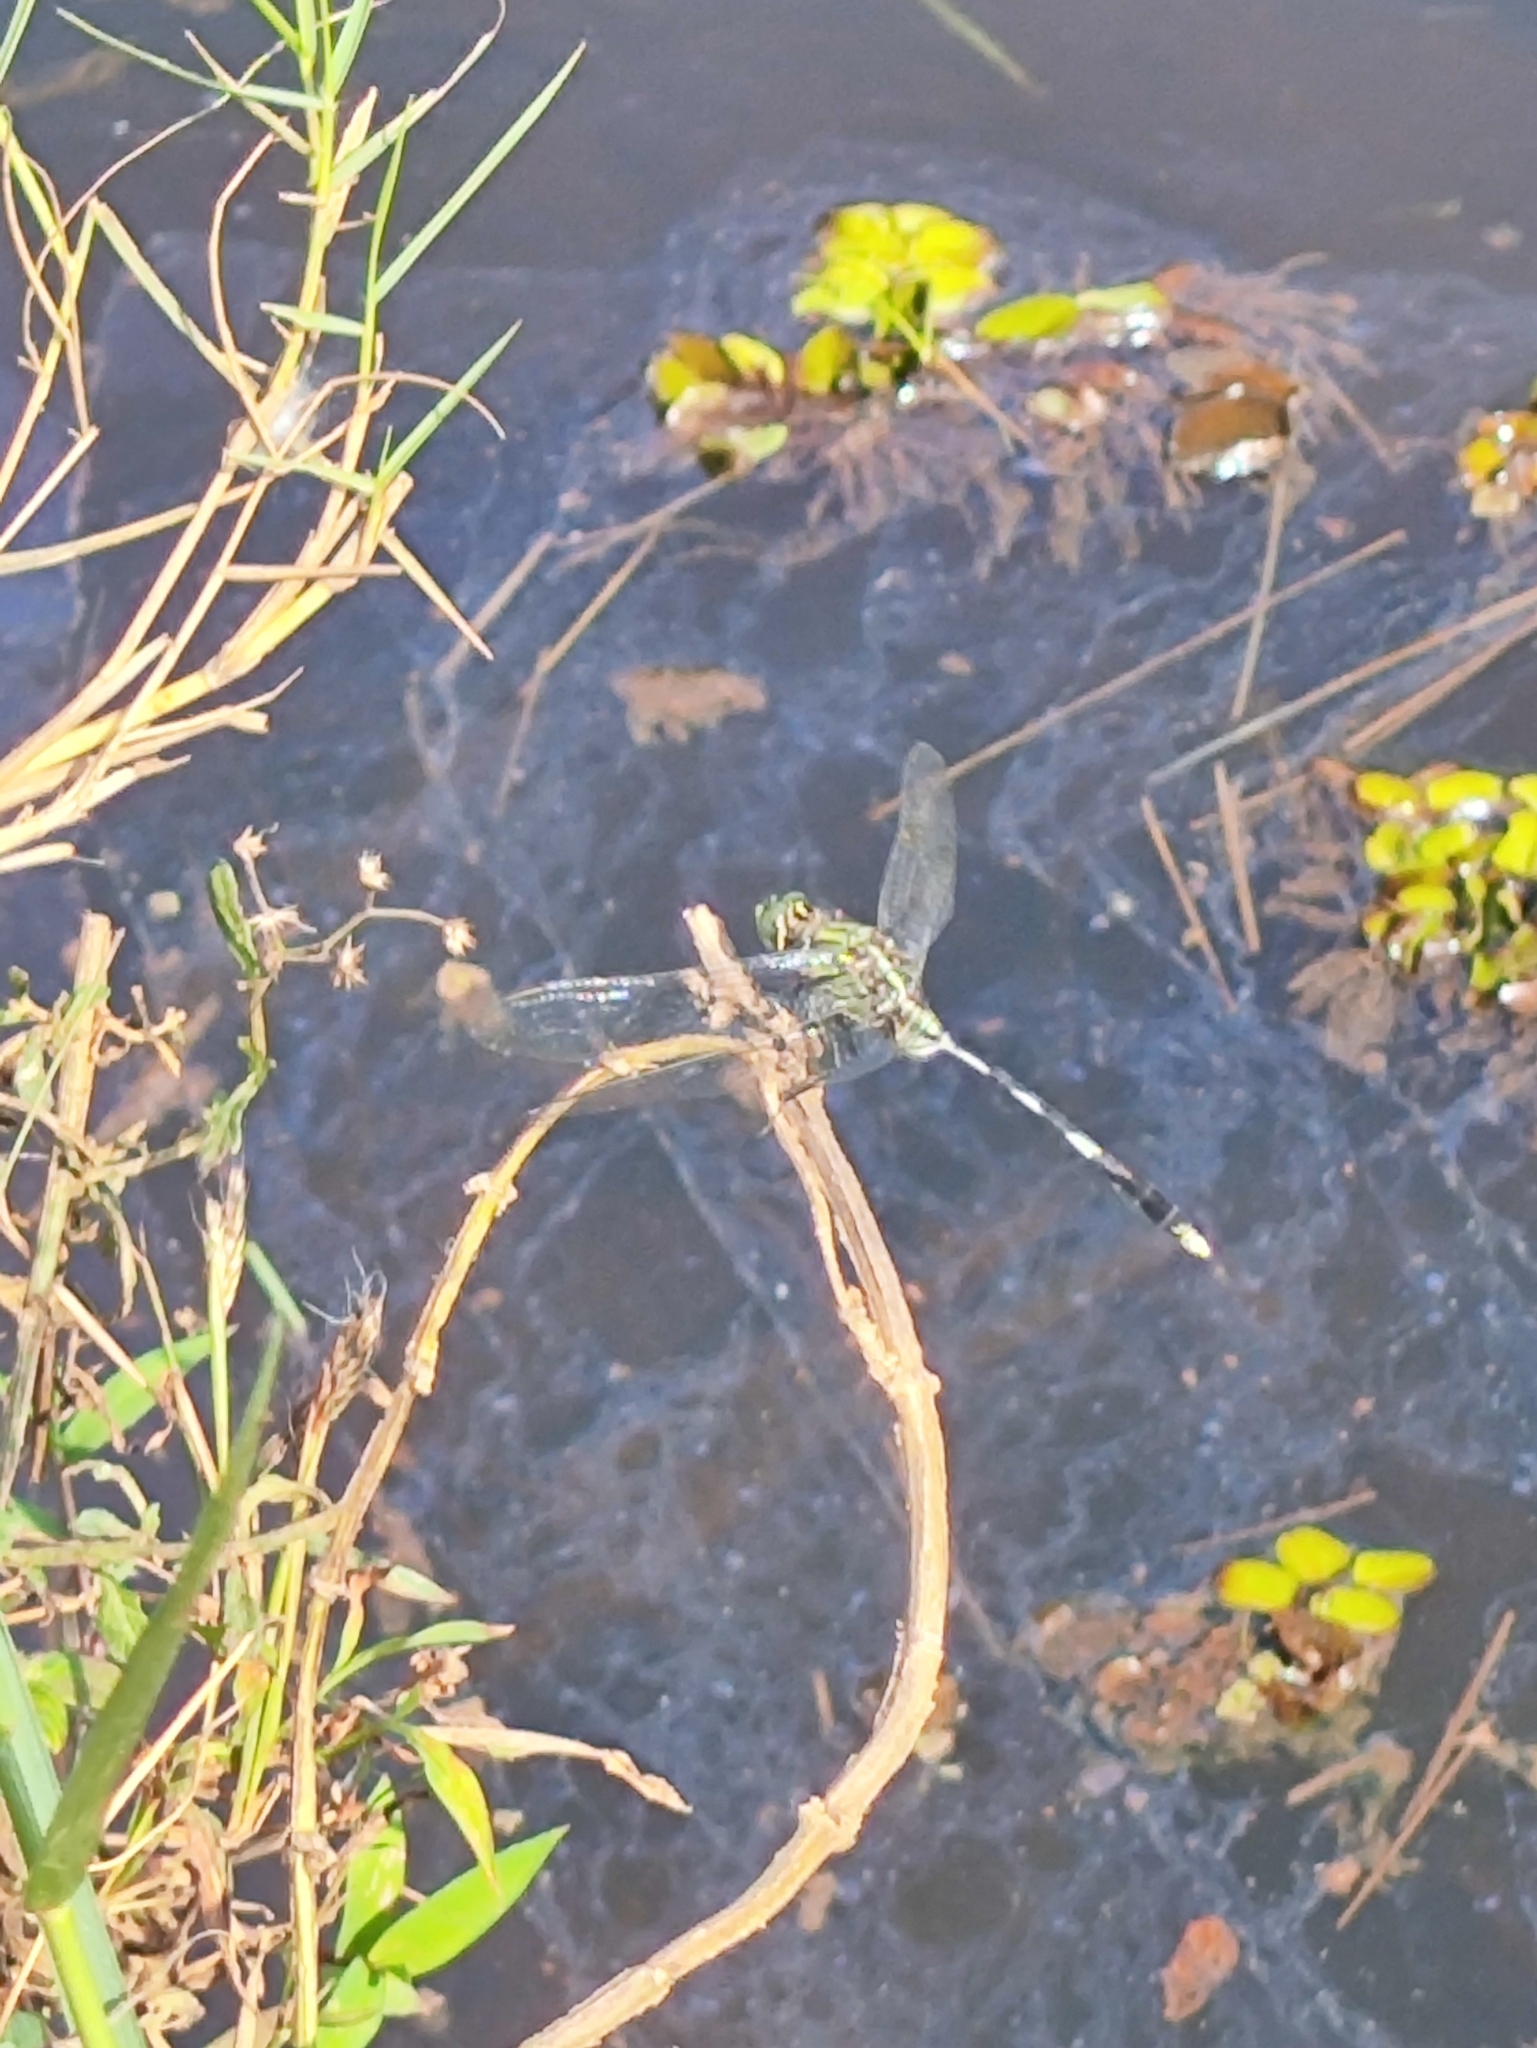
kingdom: Animalia
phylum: Arthropoda
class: Insecta
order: Odonata
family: Libellulidae
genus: Orthetrum
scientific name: Orthetrum sabina
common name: Slender skimmer
